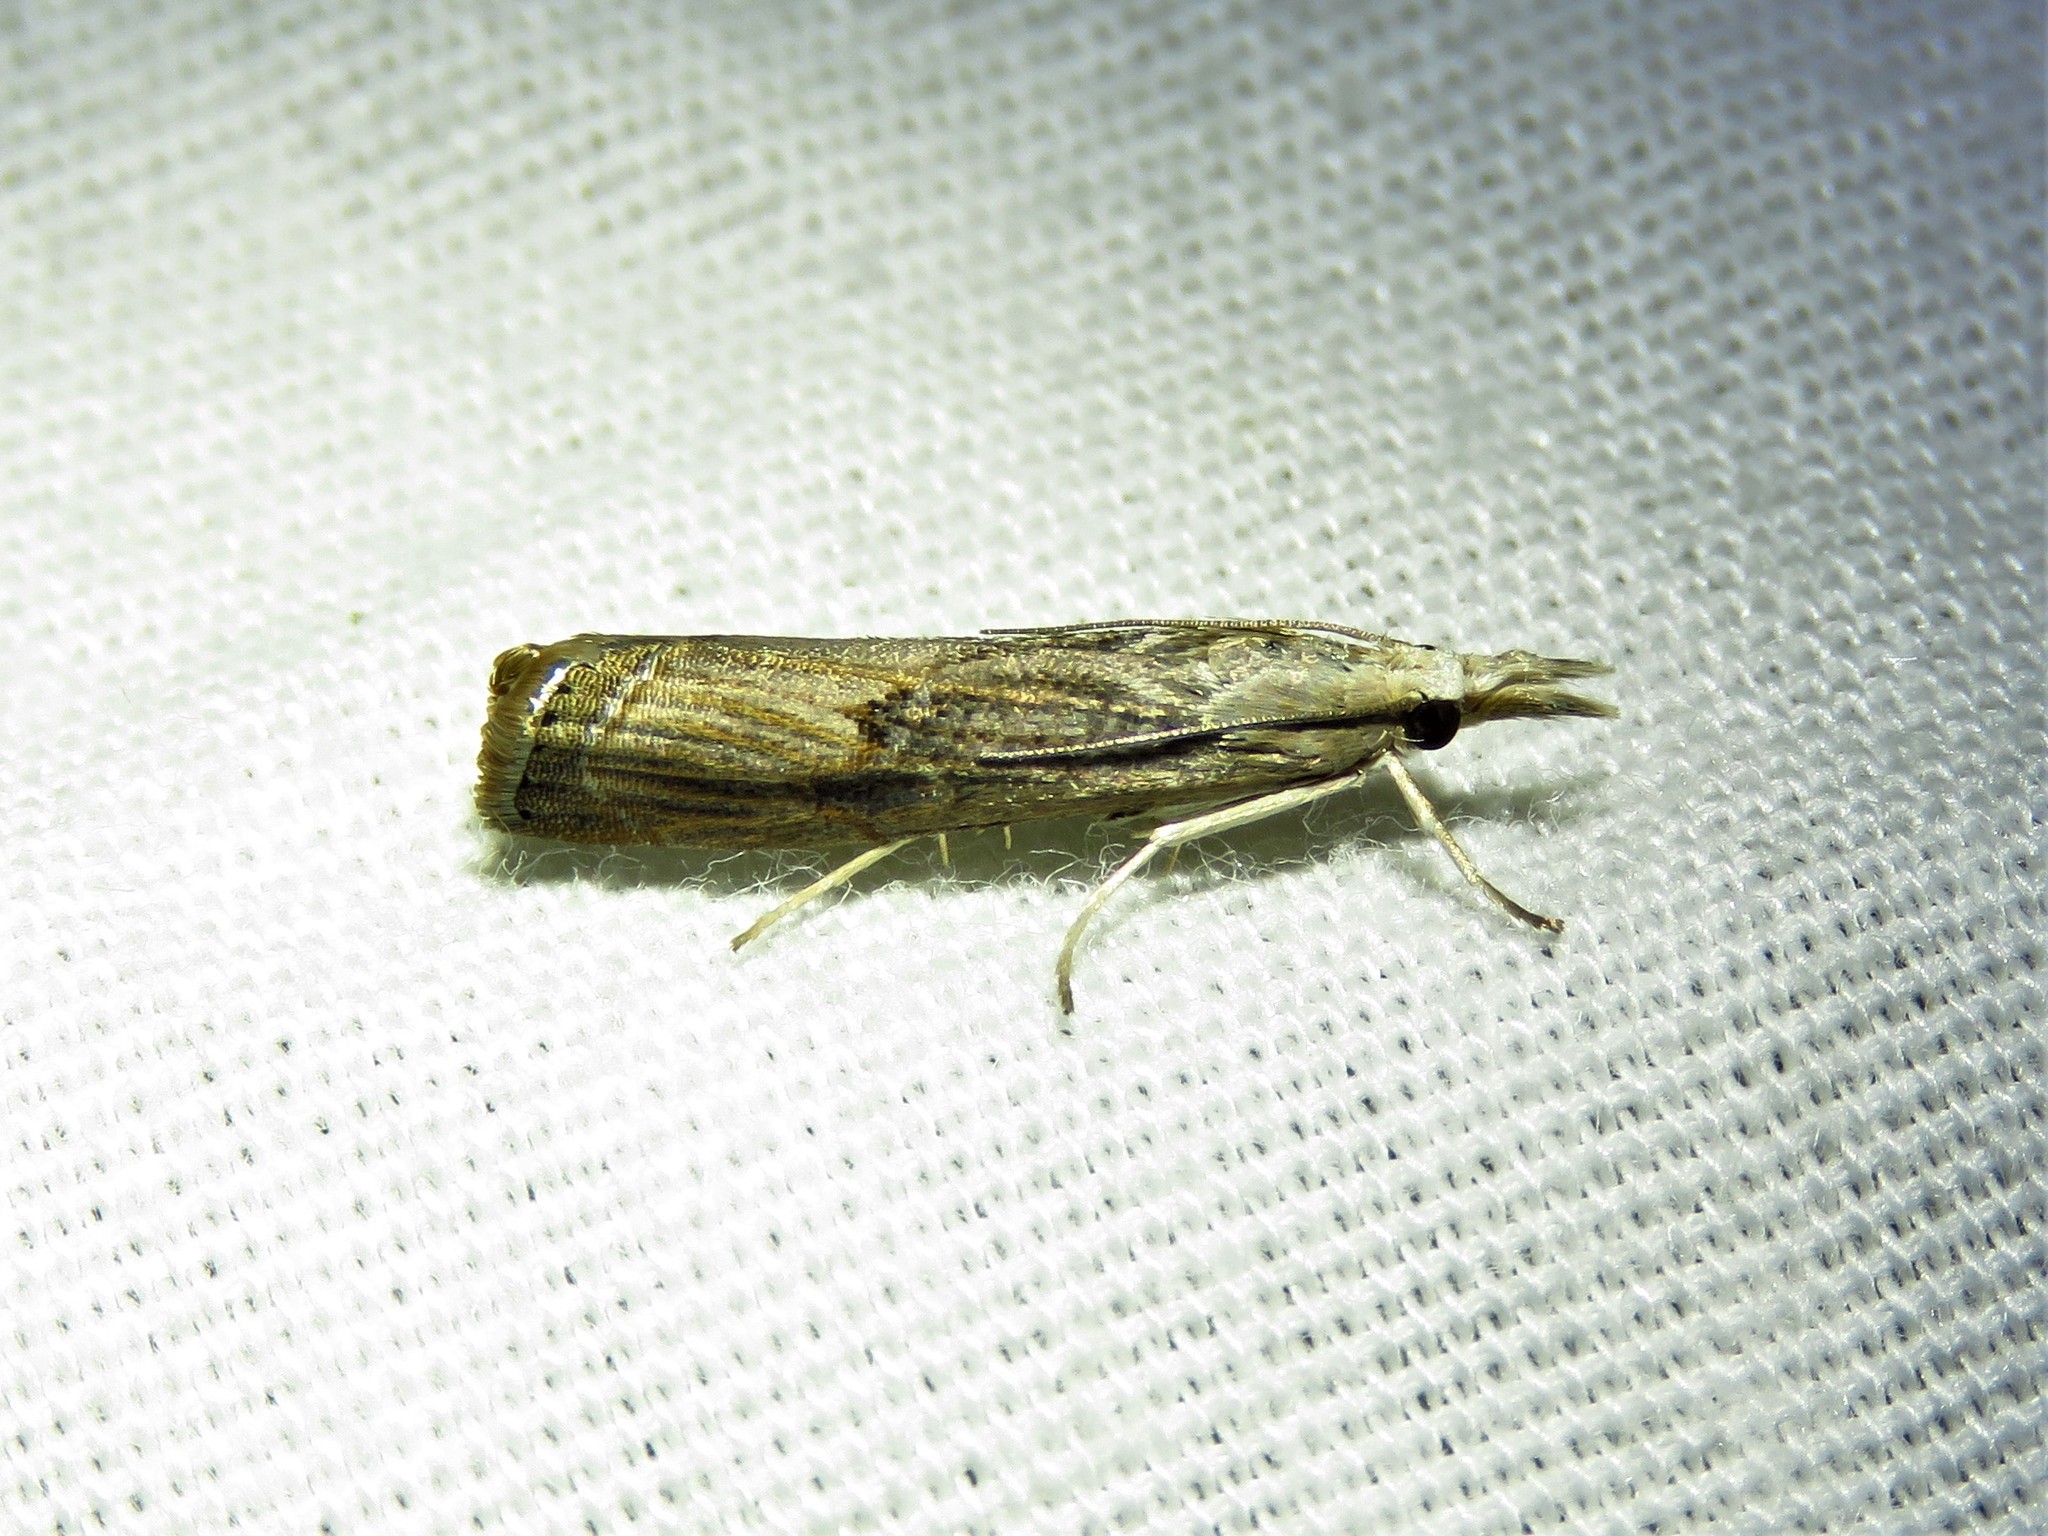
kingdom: Animalia
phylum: Arthropoda
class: Insecta
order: Lepidoptera
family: Crambidae
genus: Parapediasia
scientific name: Parapediasia teterellus
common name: Bluegrass webworm moth
